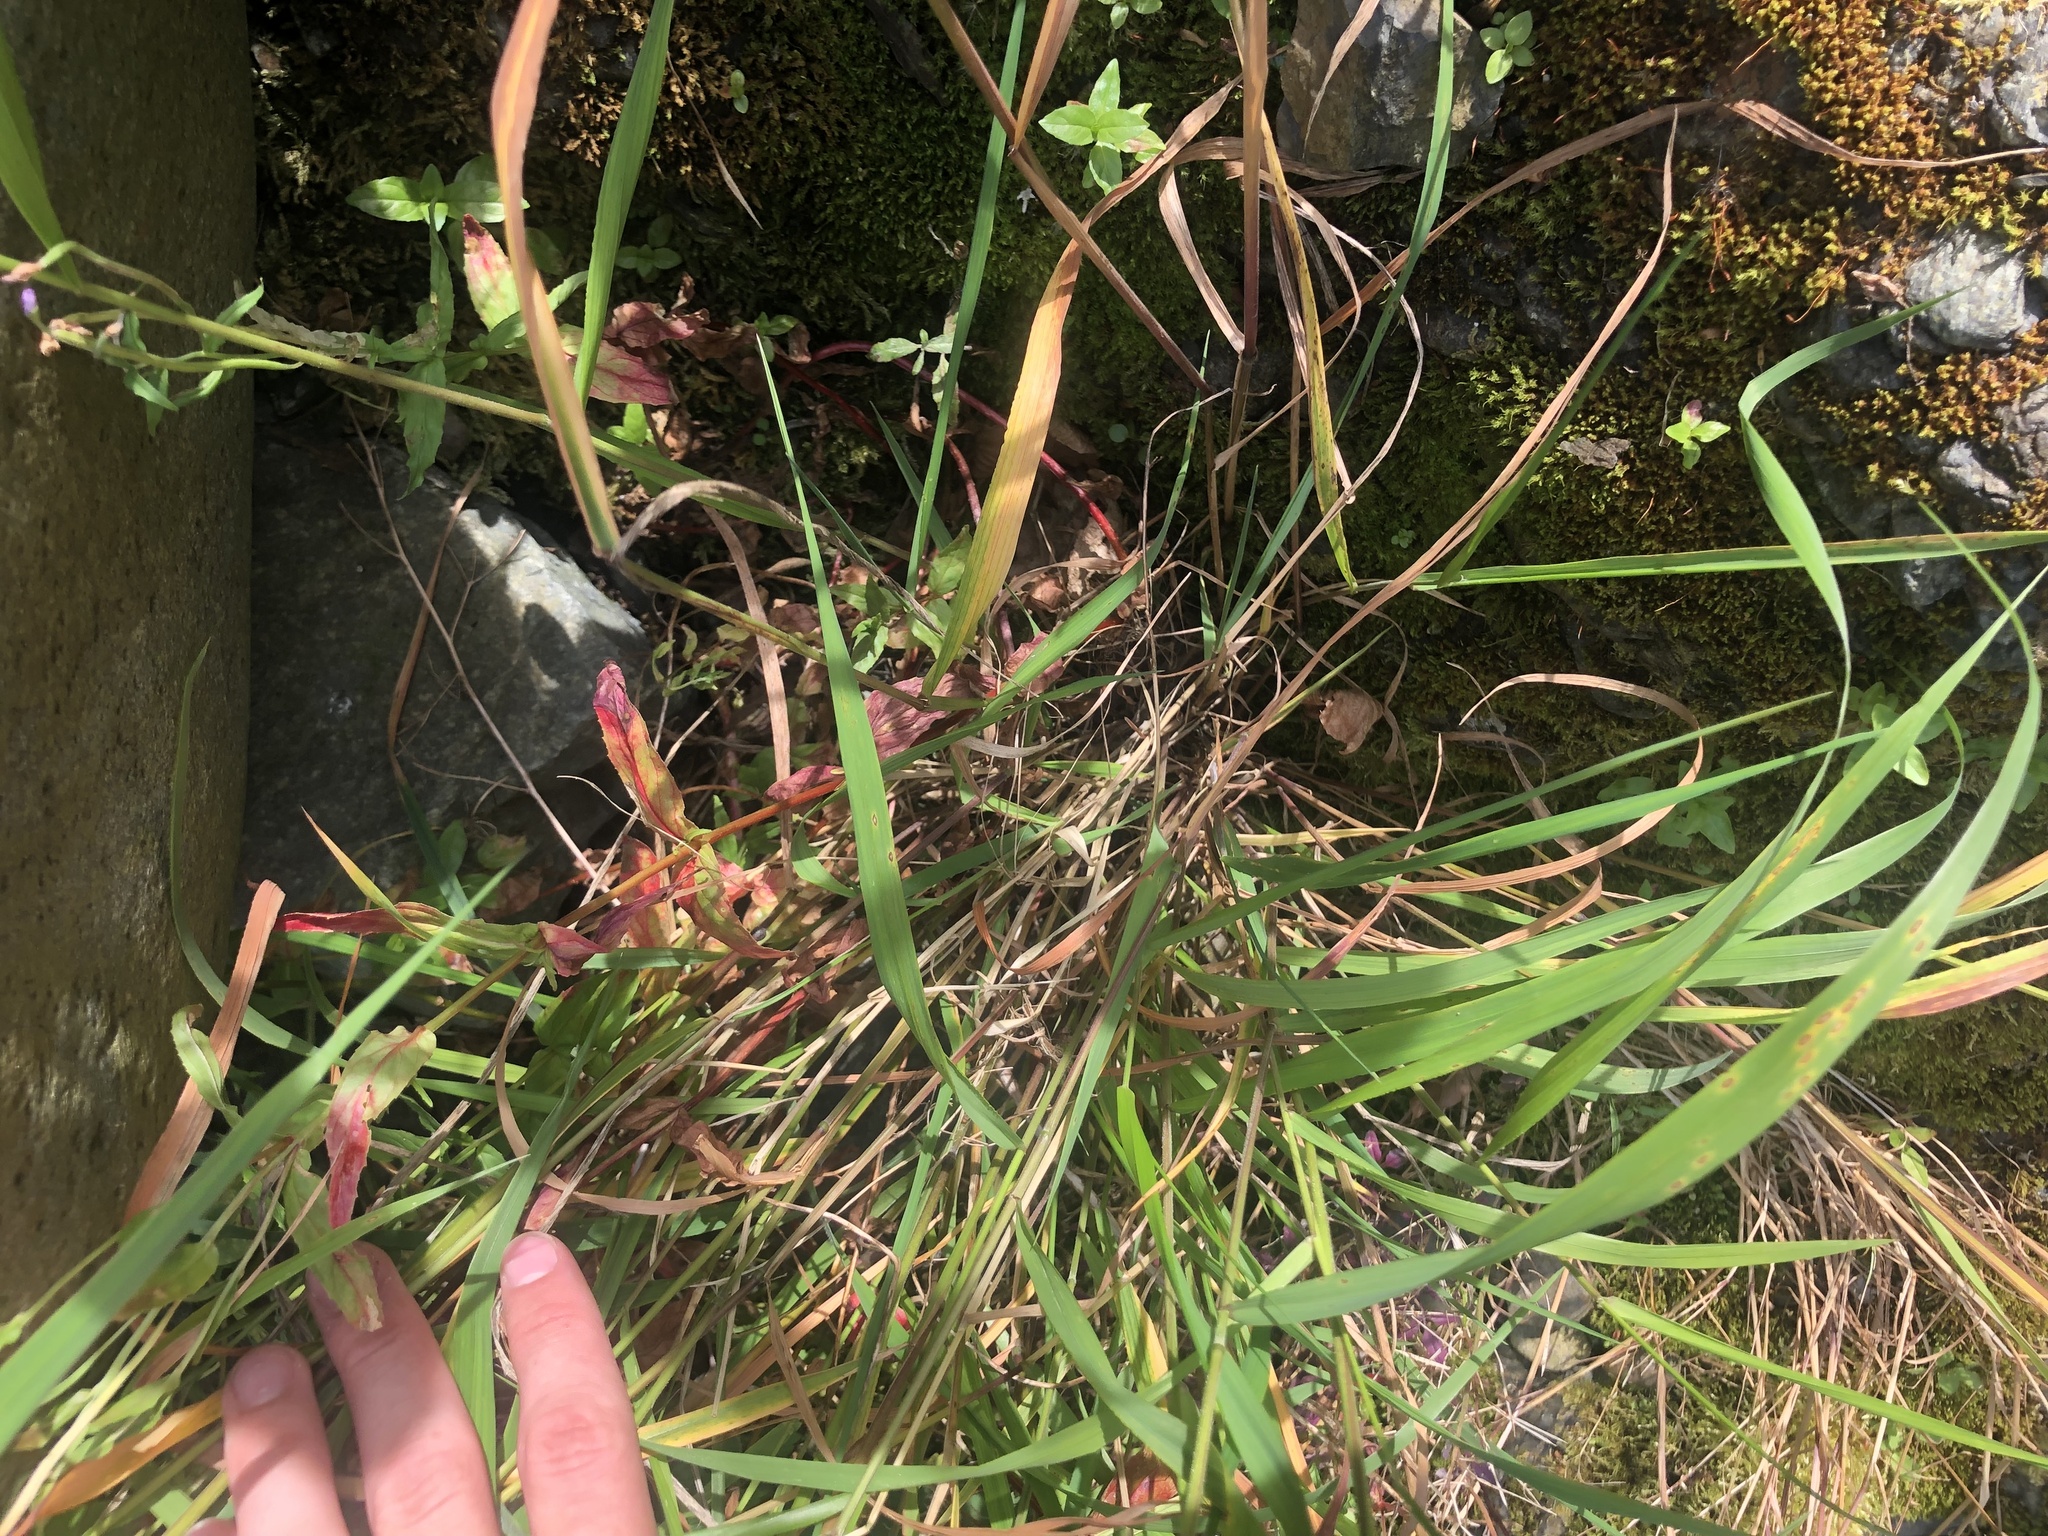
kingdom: Plantae
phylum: Tracheophyta
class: Liliopsida
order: Poales
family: Poaceae
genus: Elymus
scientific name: Elymus caninus
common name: Bearded couch
